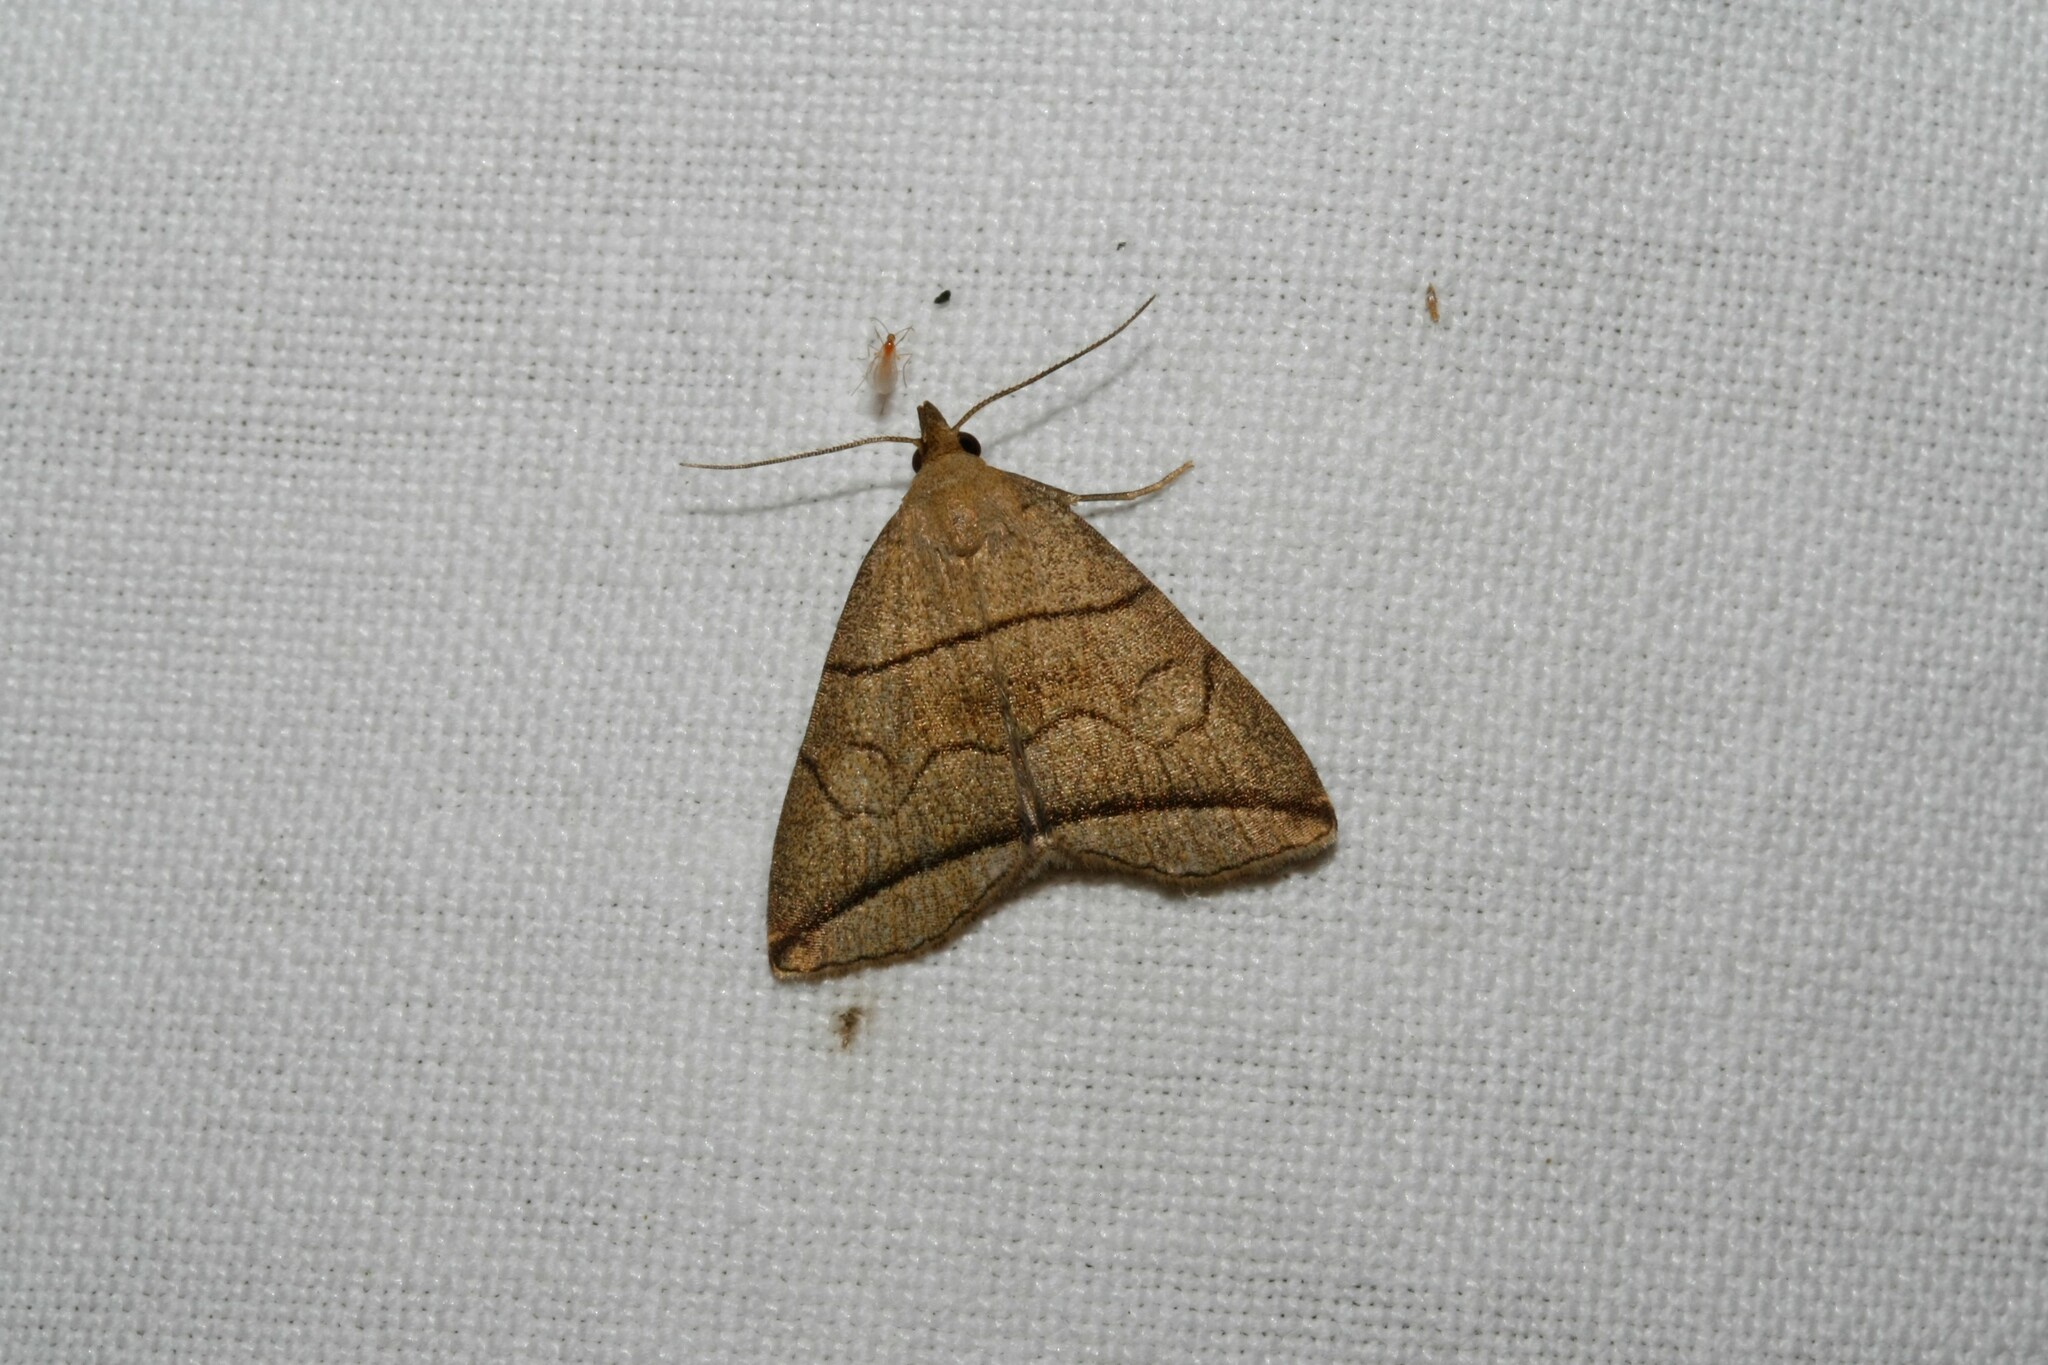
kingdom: Animalia
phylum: Arthropoda
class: Insecta
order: Lepidoptera
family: Erebidae
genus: Herminia
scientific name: Herminia grisealis
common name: Small fan-foot
